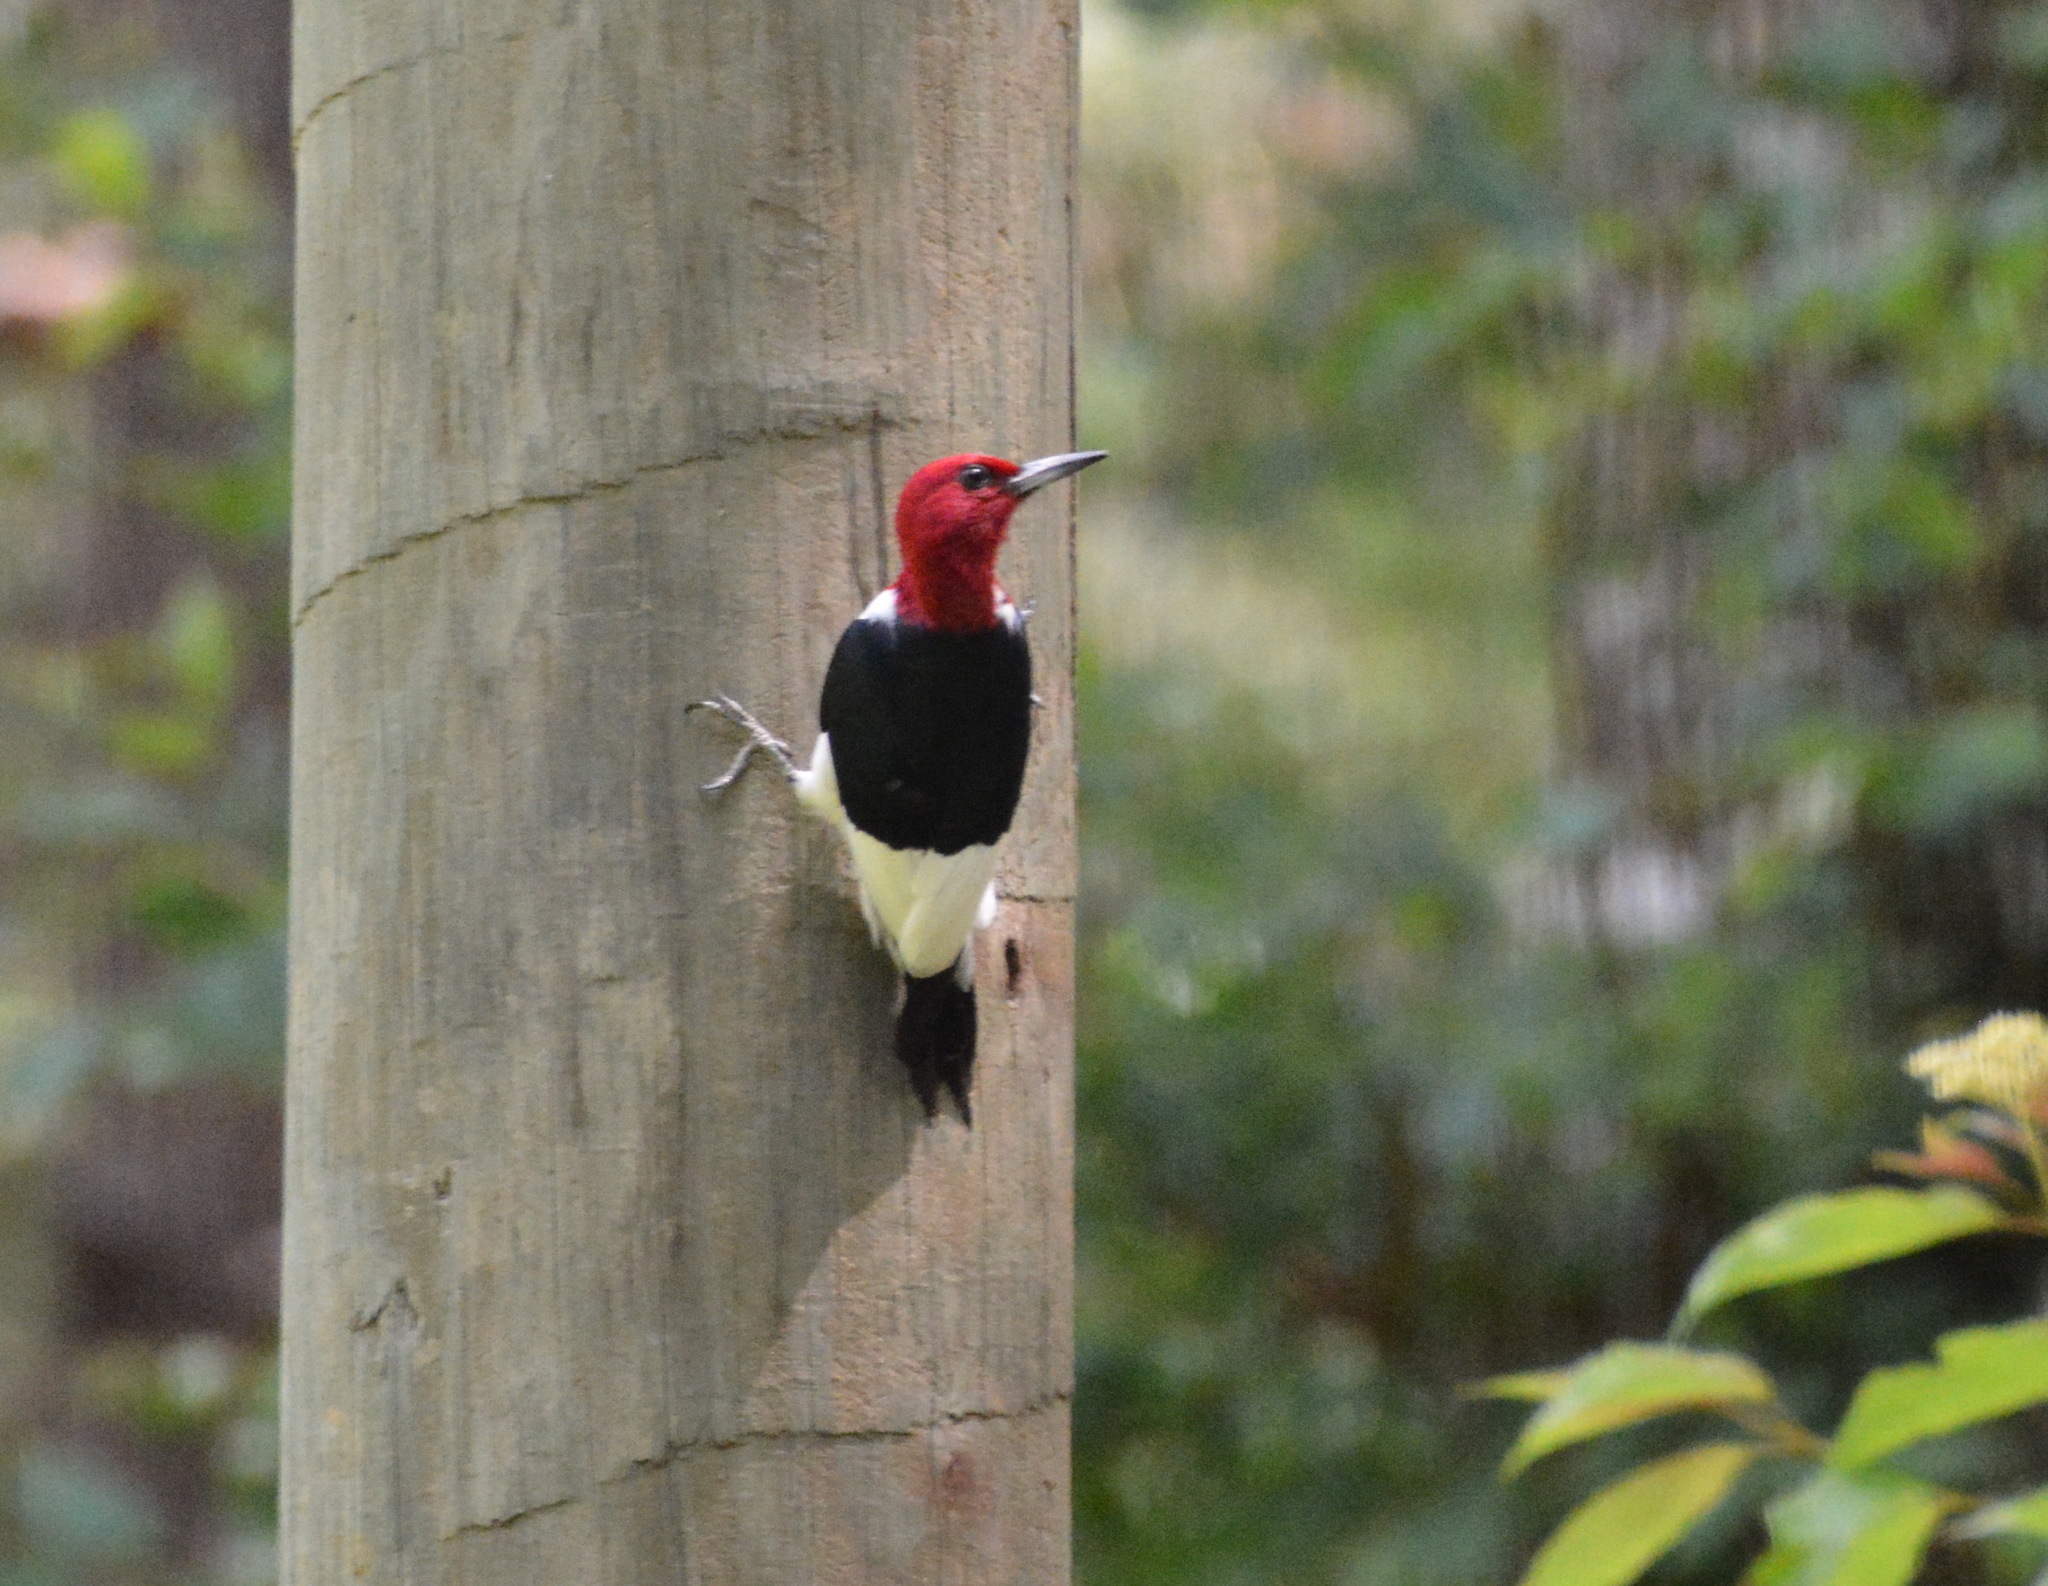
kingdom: Animalia
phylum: Chordata
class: Aves
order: Piciformes
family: Picidae
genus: Melanerpes
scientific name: Melanerpes erythrocephalus
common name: Red-headed woodpecker
